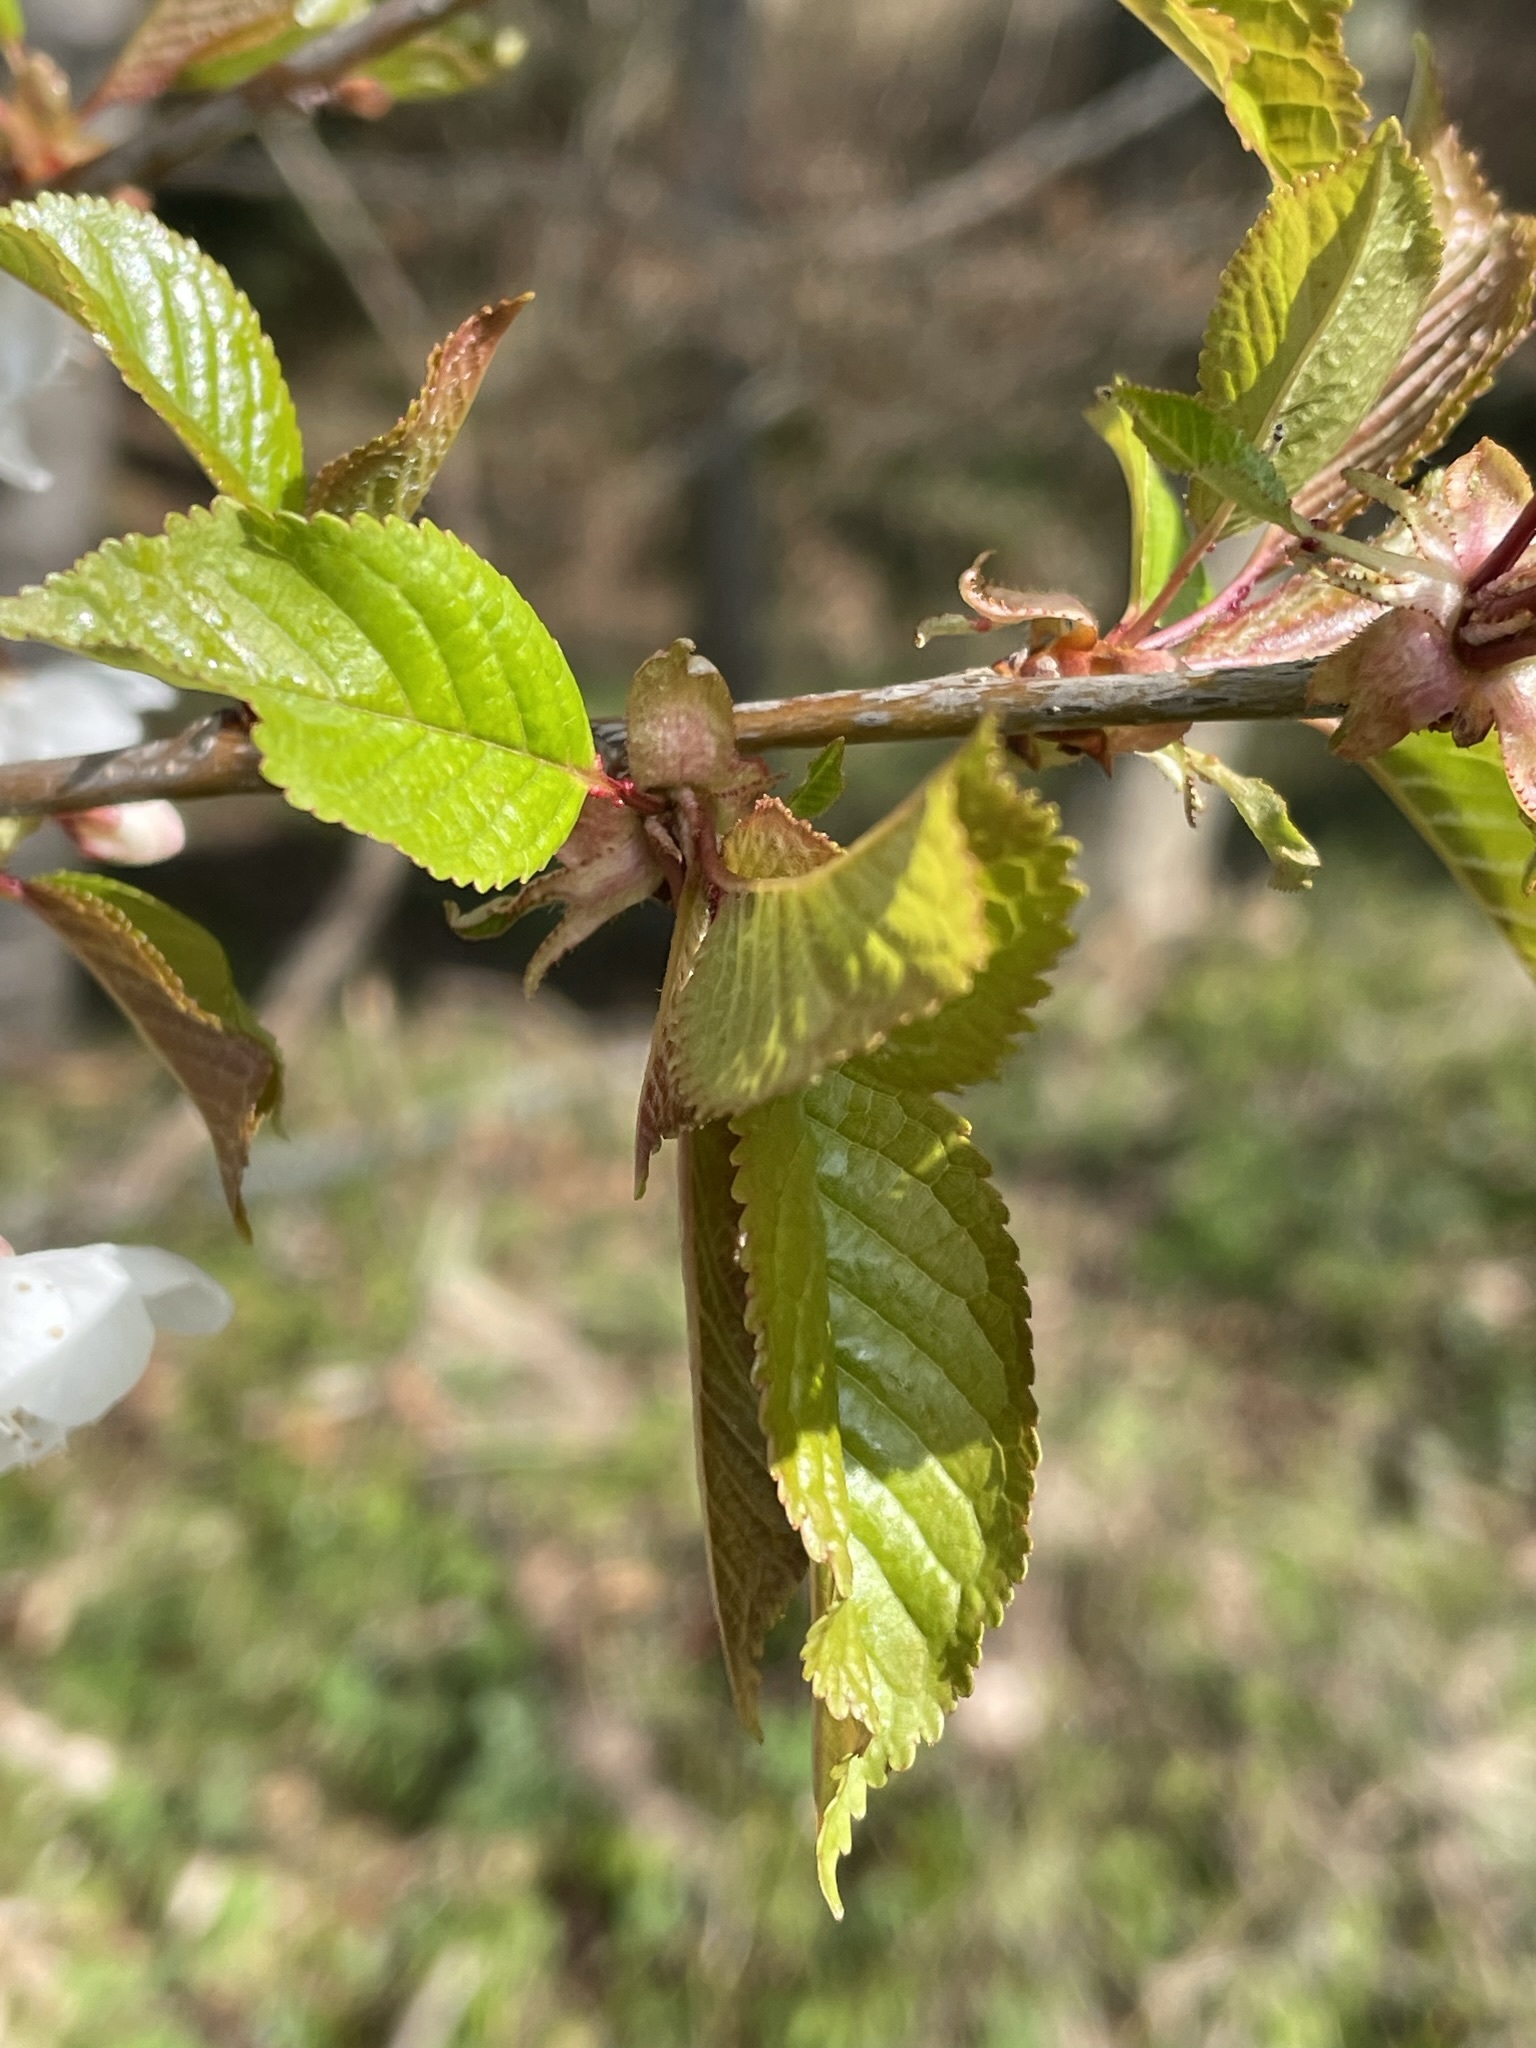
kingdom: Plantae
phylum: Tracheophyta
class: Magnoliopsida
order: Rosales
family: Rosaceae
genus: Prunus
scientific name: Prunus avium
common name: Sweet cherry
